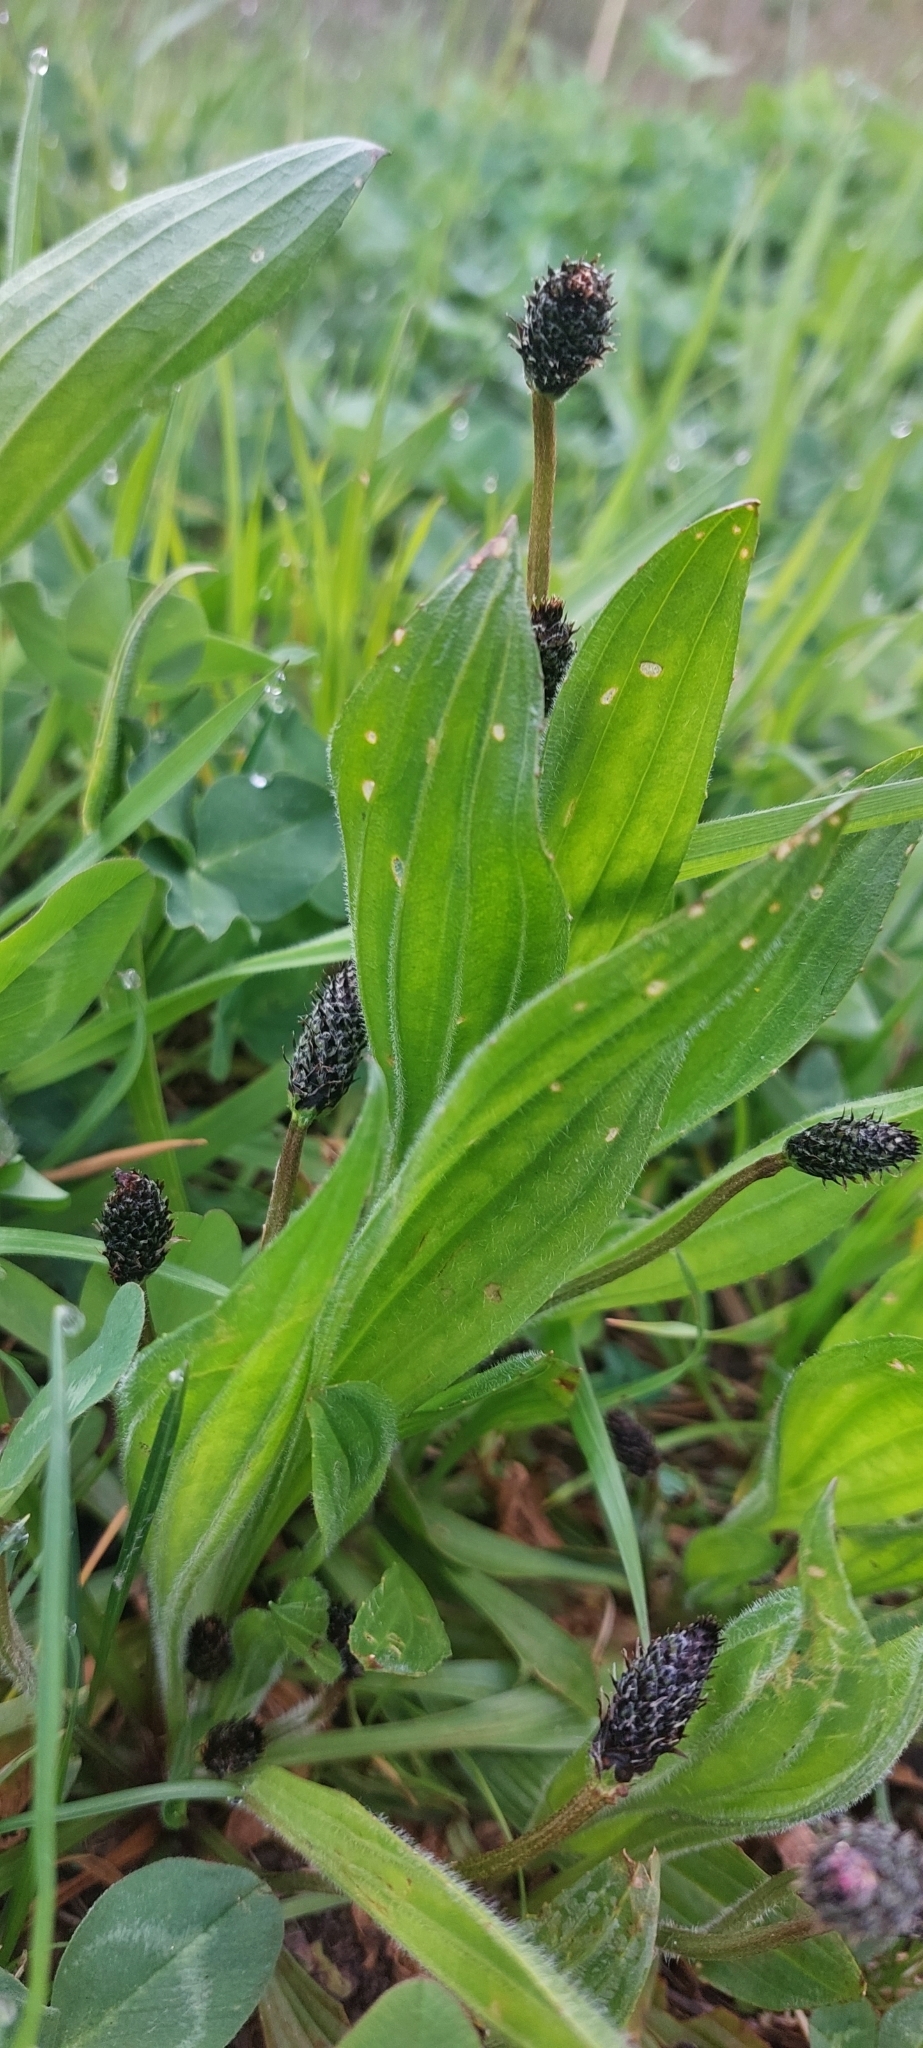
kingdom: Plantae
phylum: Tracheophyta
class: Magnoliopsida
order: Lamiales
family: Plantaginaceae
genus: Plantago
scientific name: Plantago lanceolata
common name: Ribwort plantain
